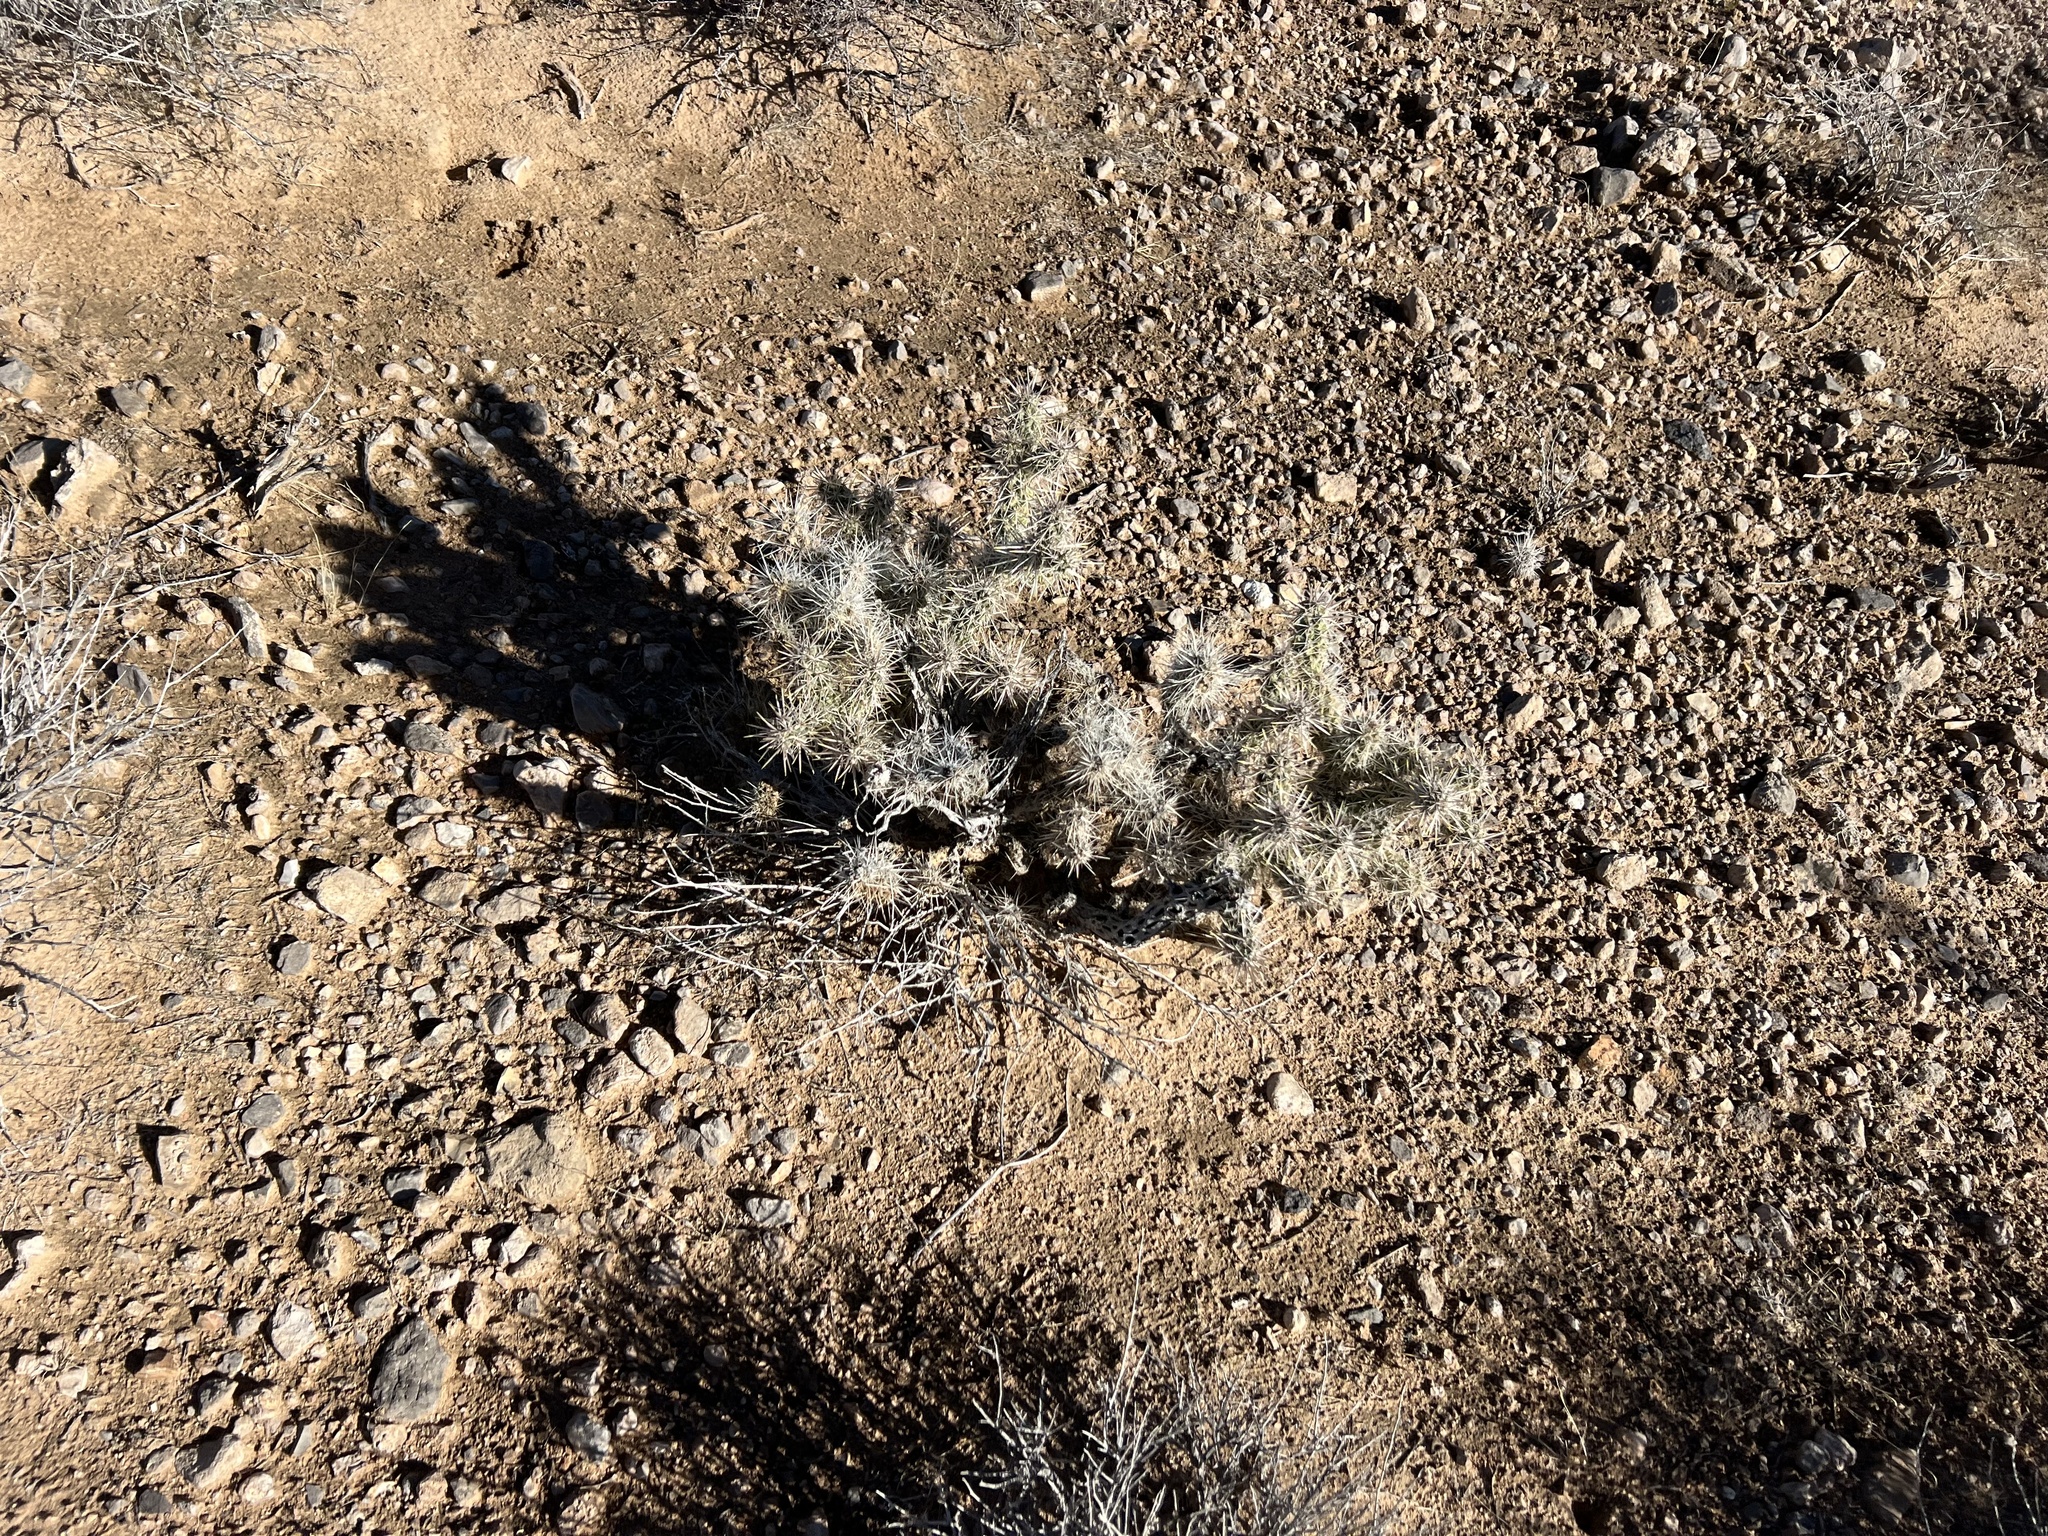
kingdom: Plantae
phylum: Tracheophyta
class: Magnoliopsida
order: Caryophyllales
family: Cactaceae
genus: Cylindropuntia
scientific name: Cylindropuntia echinocarpa
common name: Ground cholla
